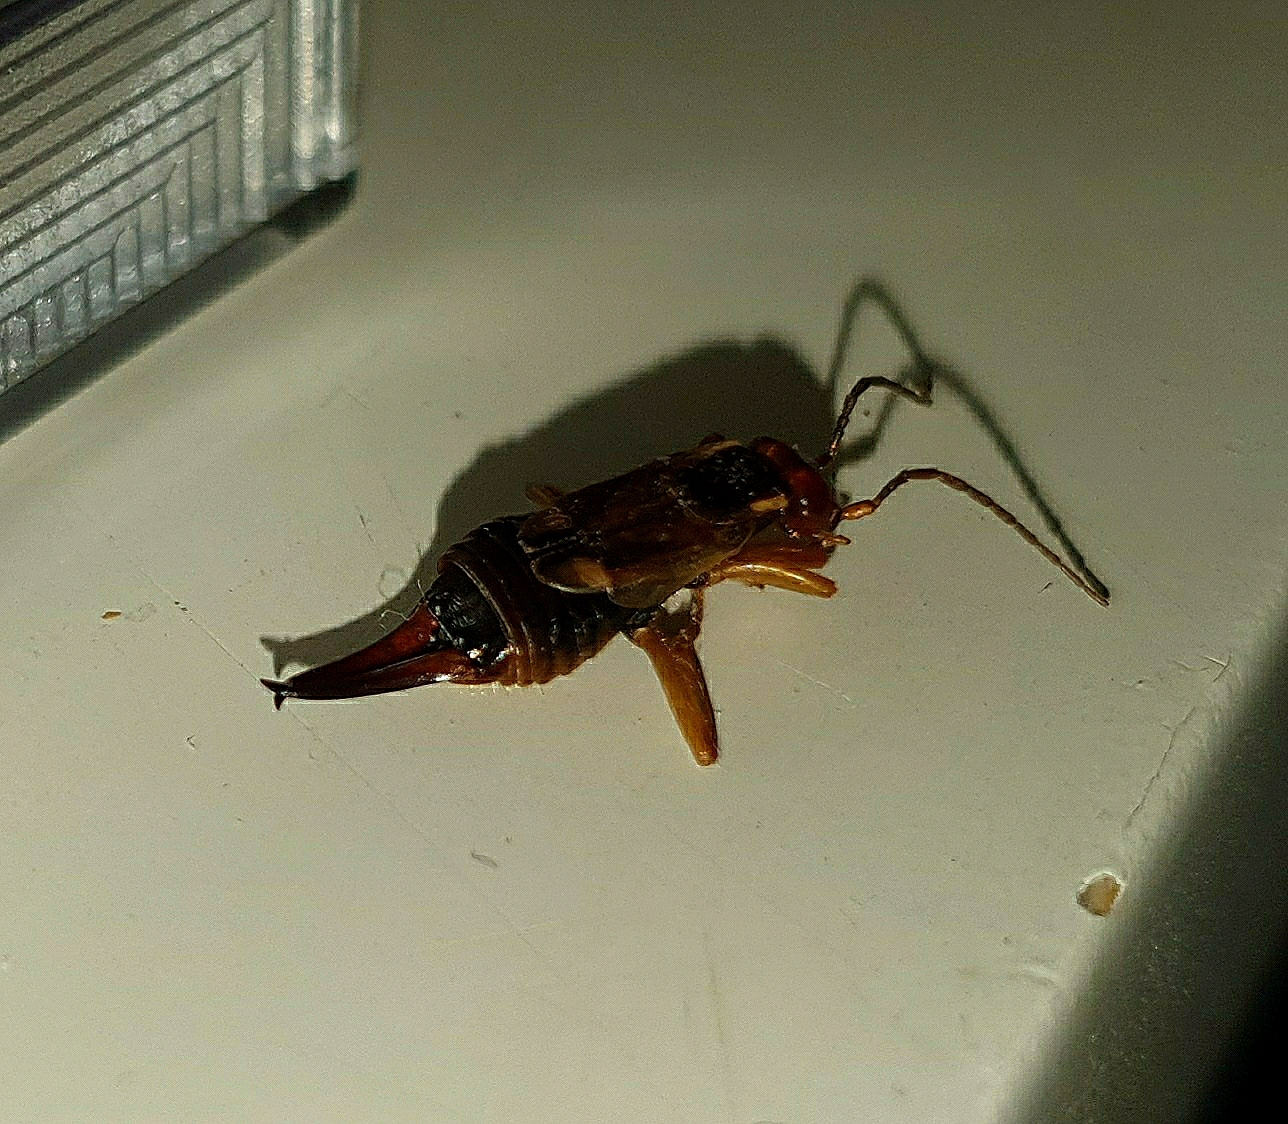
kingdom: Animalia
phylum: Arthropoda
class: Insecta
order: Dermaptera
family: Forficulidae
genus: Forficula
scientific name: Forficula
